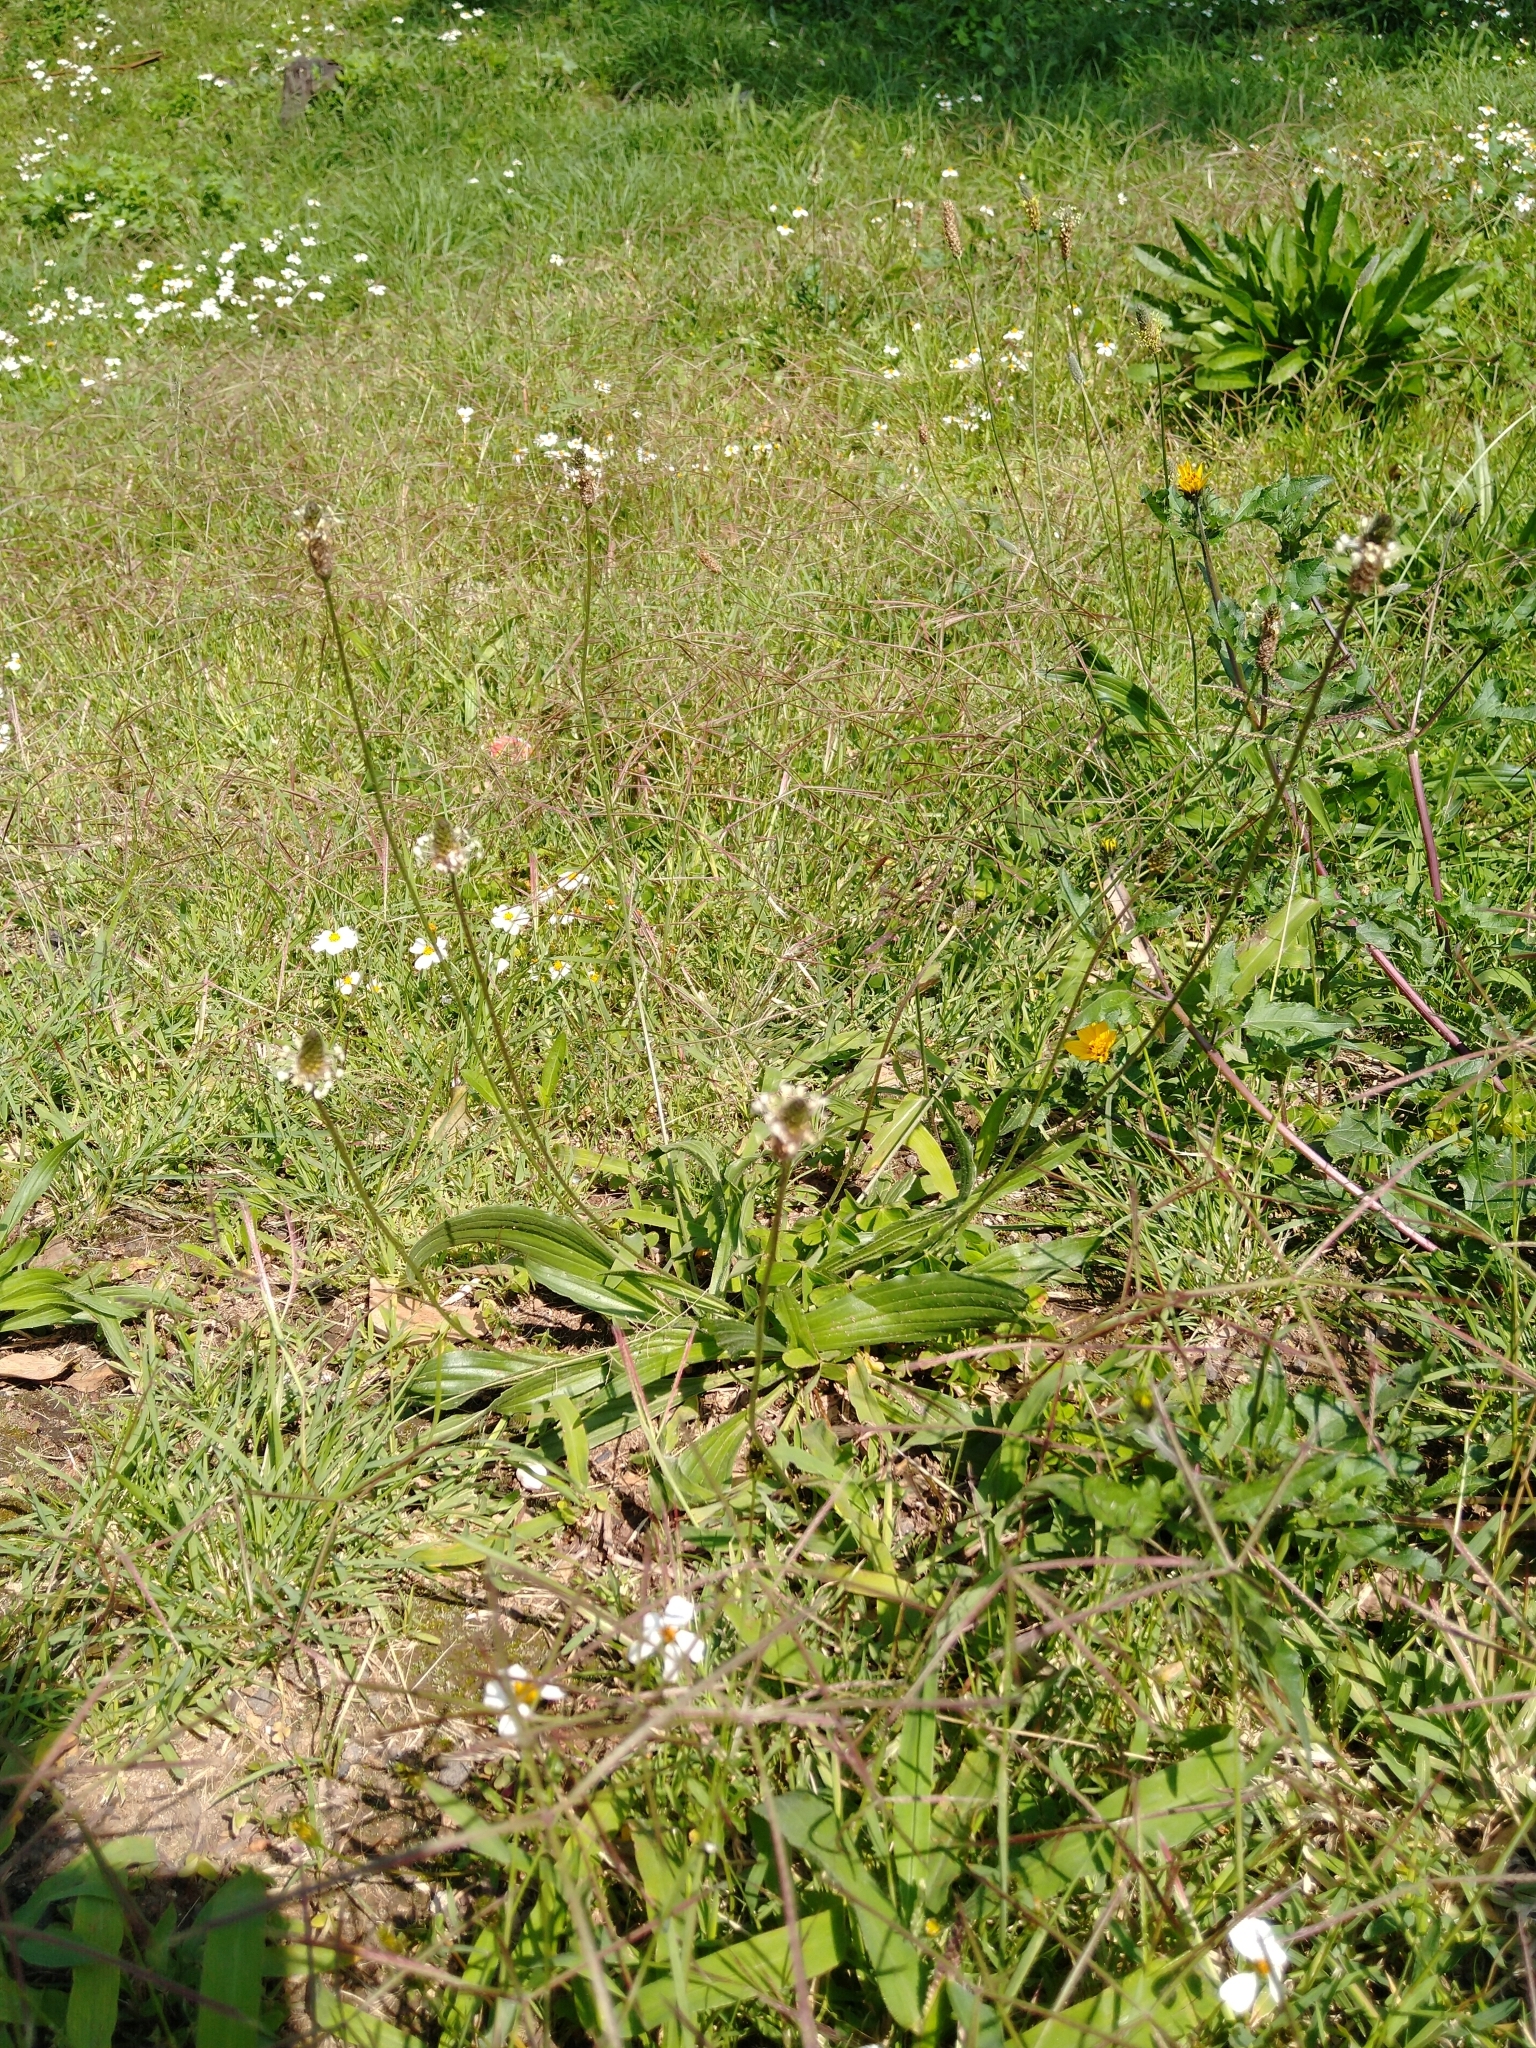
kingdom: Plantae
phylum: Tracheophyta
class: Magnoliopsida
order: Lamiales
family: Plantaginaceae
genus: Plantago
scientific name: Plantago lanceolata
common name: Ribwort plantain
